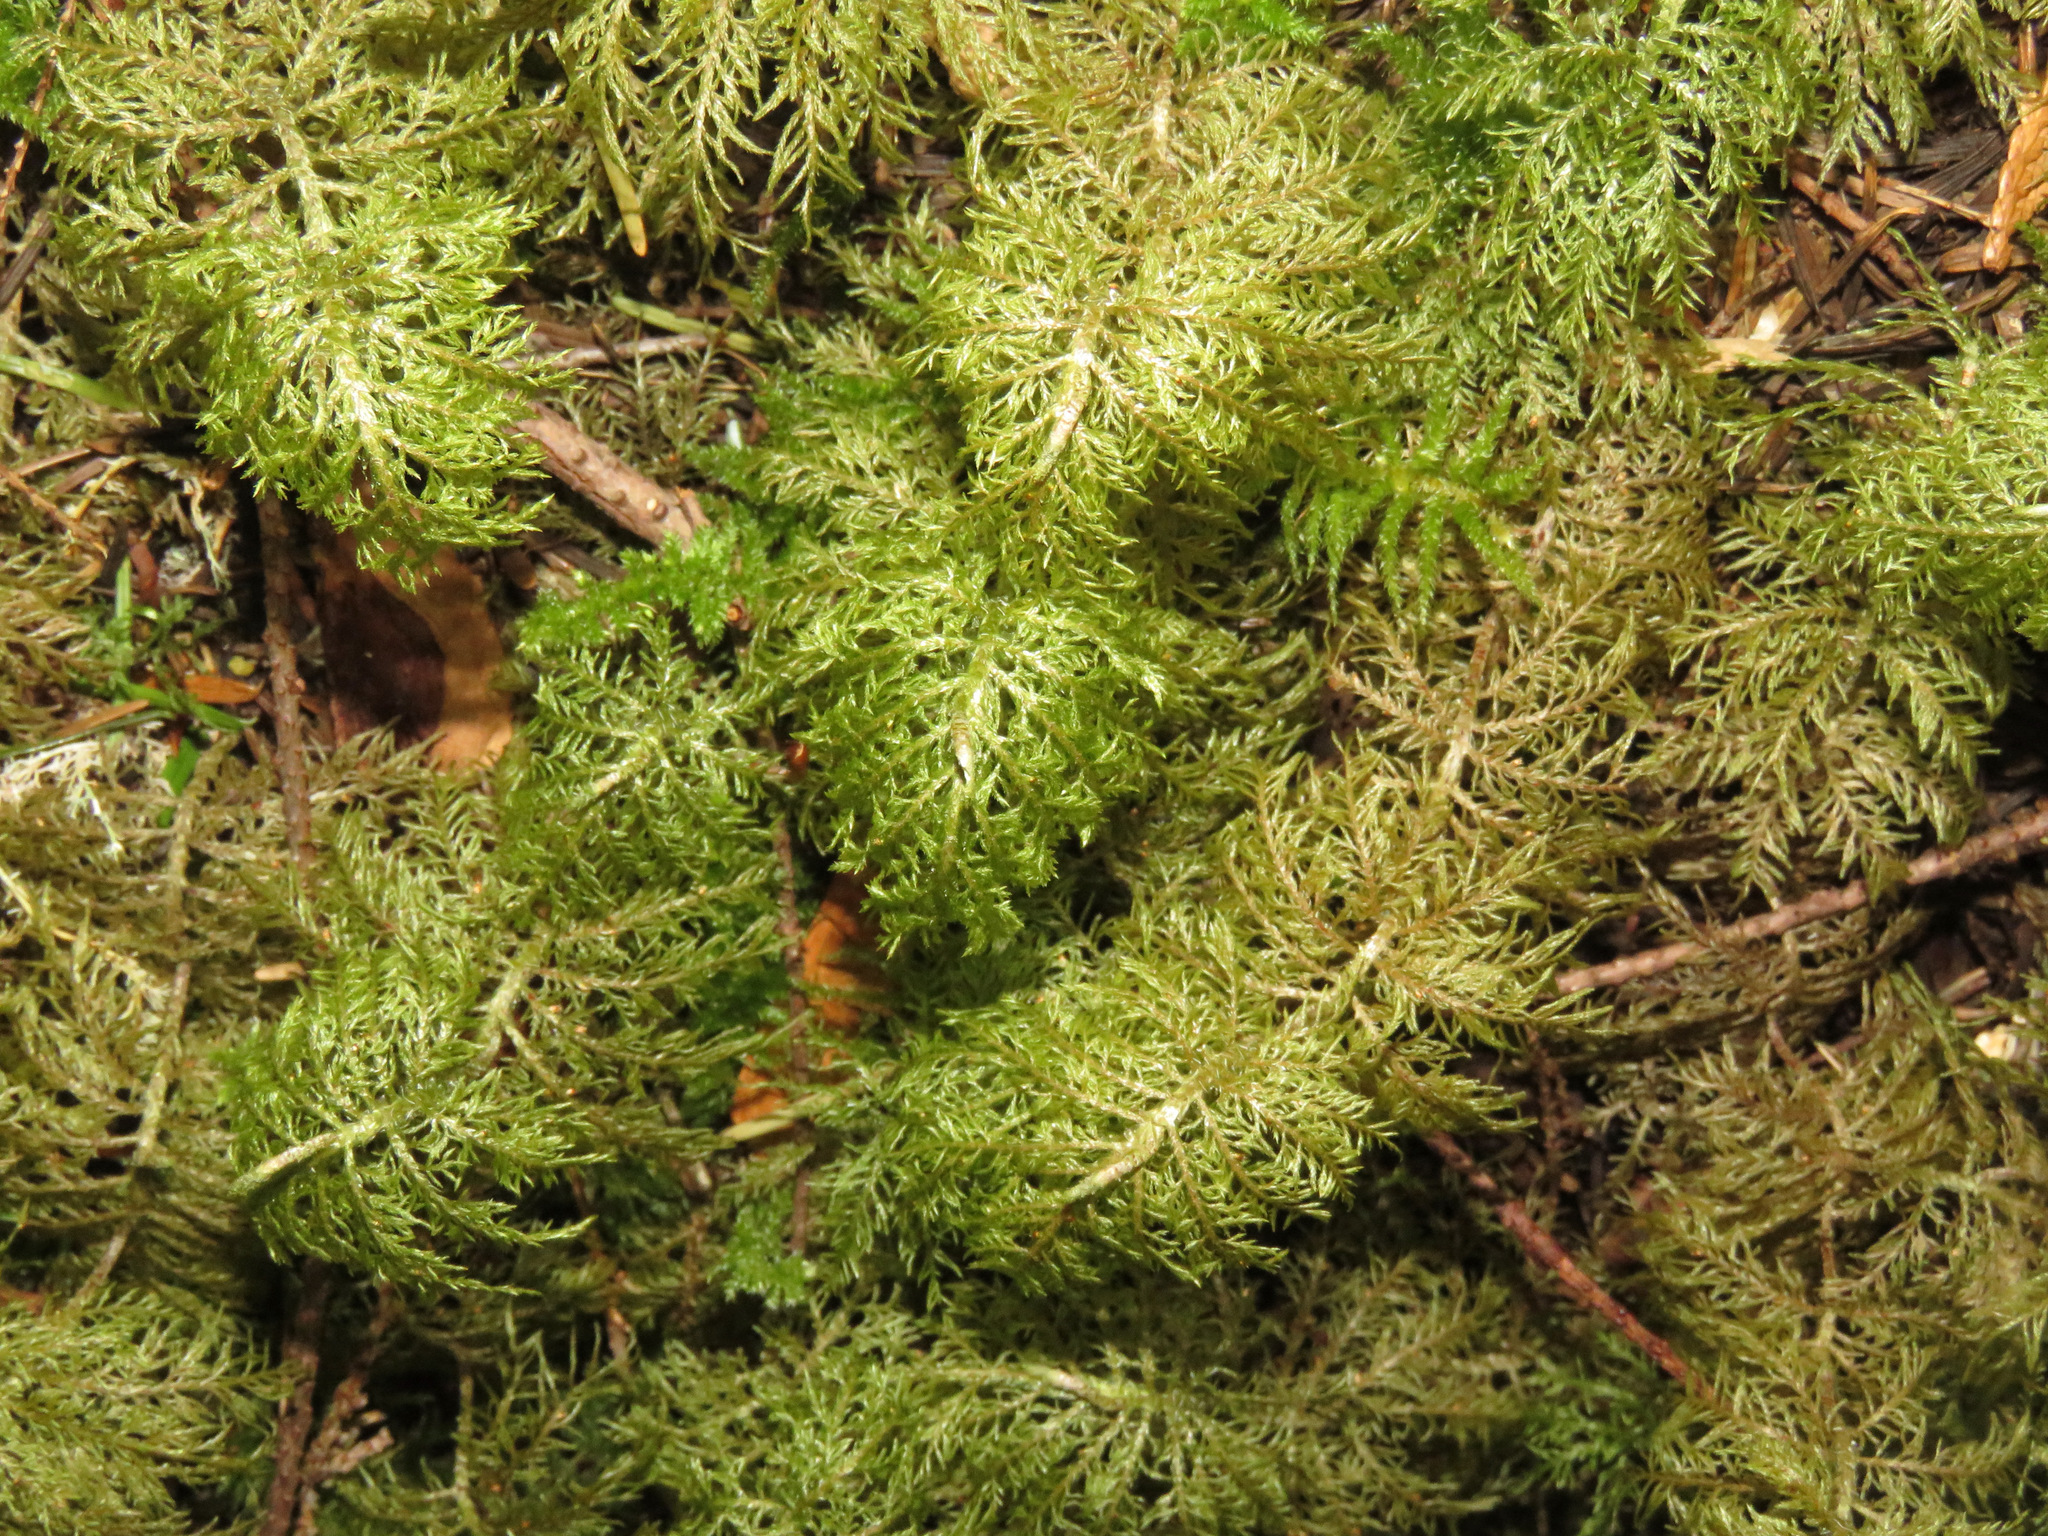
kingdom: Plantae
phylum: Bryophyta
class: Bryopsida
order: Hypnales
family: Hylocomiaceae
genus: Hylocomium
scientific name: Hylocomium splendens
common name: Stairstep moss
